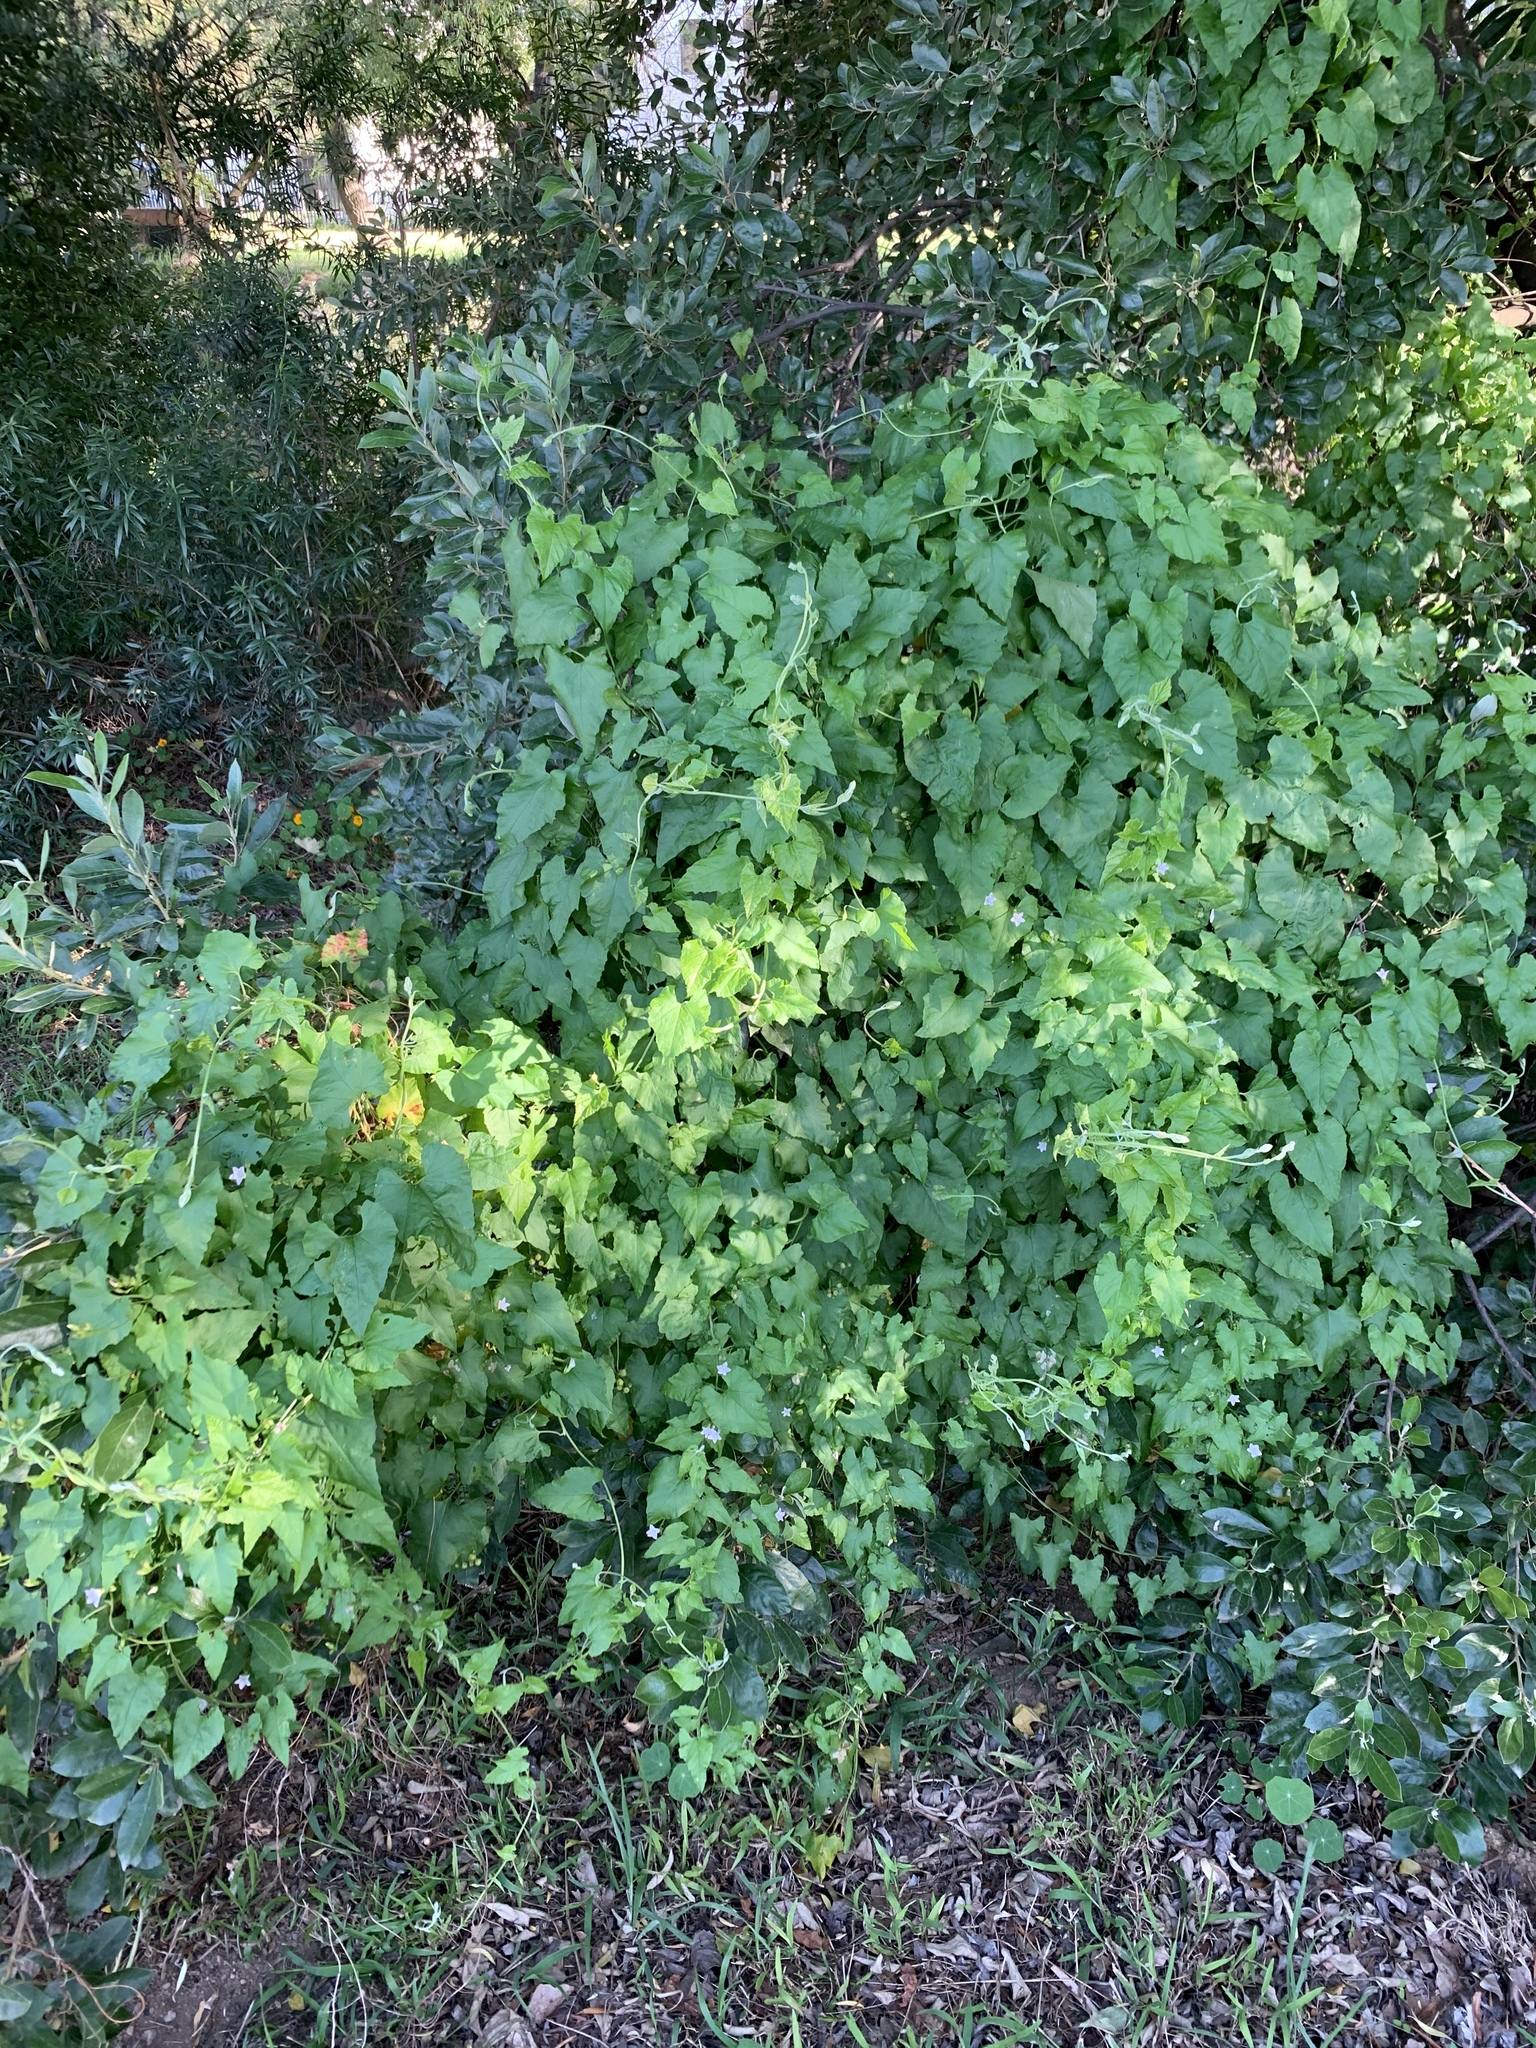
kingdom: Plantae
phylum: Tracheophyta
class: Magnoliopsida
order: Solanales
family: Convolvulaceae
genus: Convolvulus
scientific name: Convolvulus farinosus
